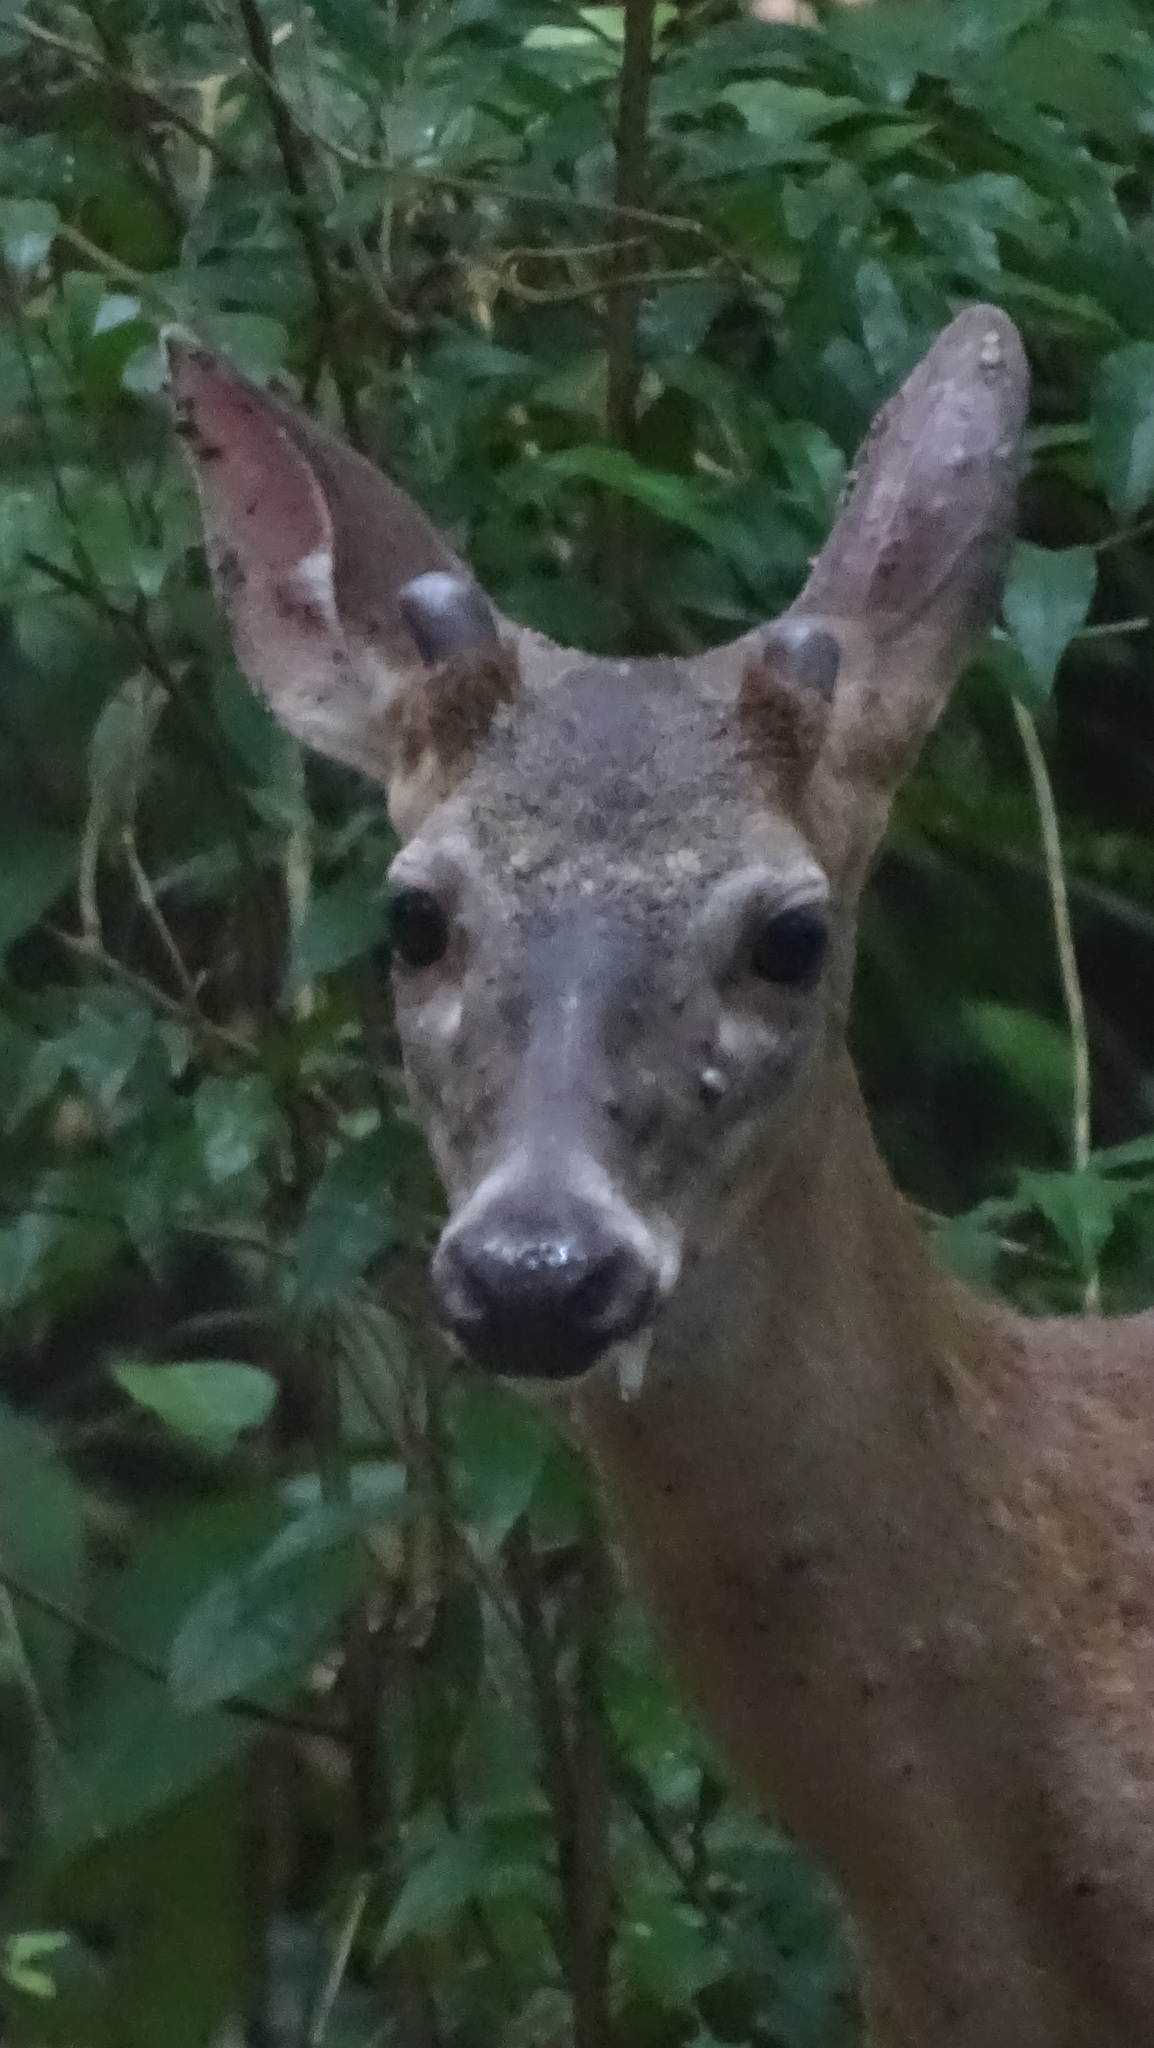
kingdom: Animalia
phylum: Chordata
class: Mammalia
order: Artiodactyla
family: Cervidae
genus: Odocoileus
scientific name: Odocoileus virginianus
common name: White-tailed deer
